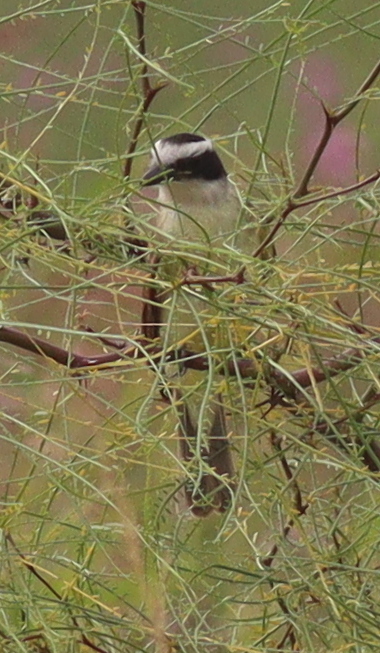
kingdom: Animalia
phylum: Chordata
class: Aves
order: Passeriformes
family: Tyrannidae
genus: Pitangus
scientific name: Pitangus sulphuratus
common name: Great kiskadee
